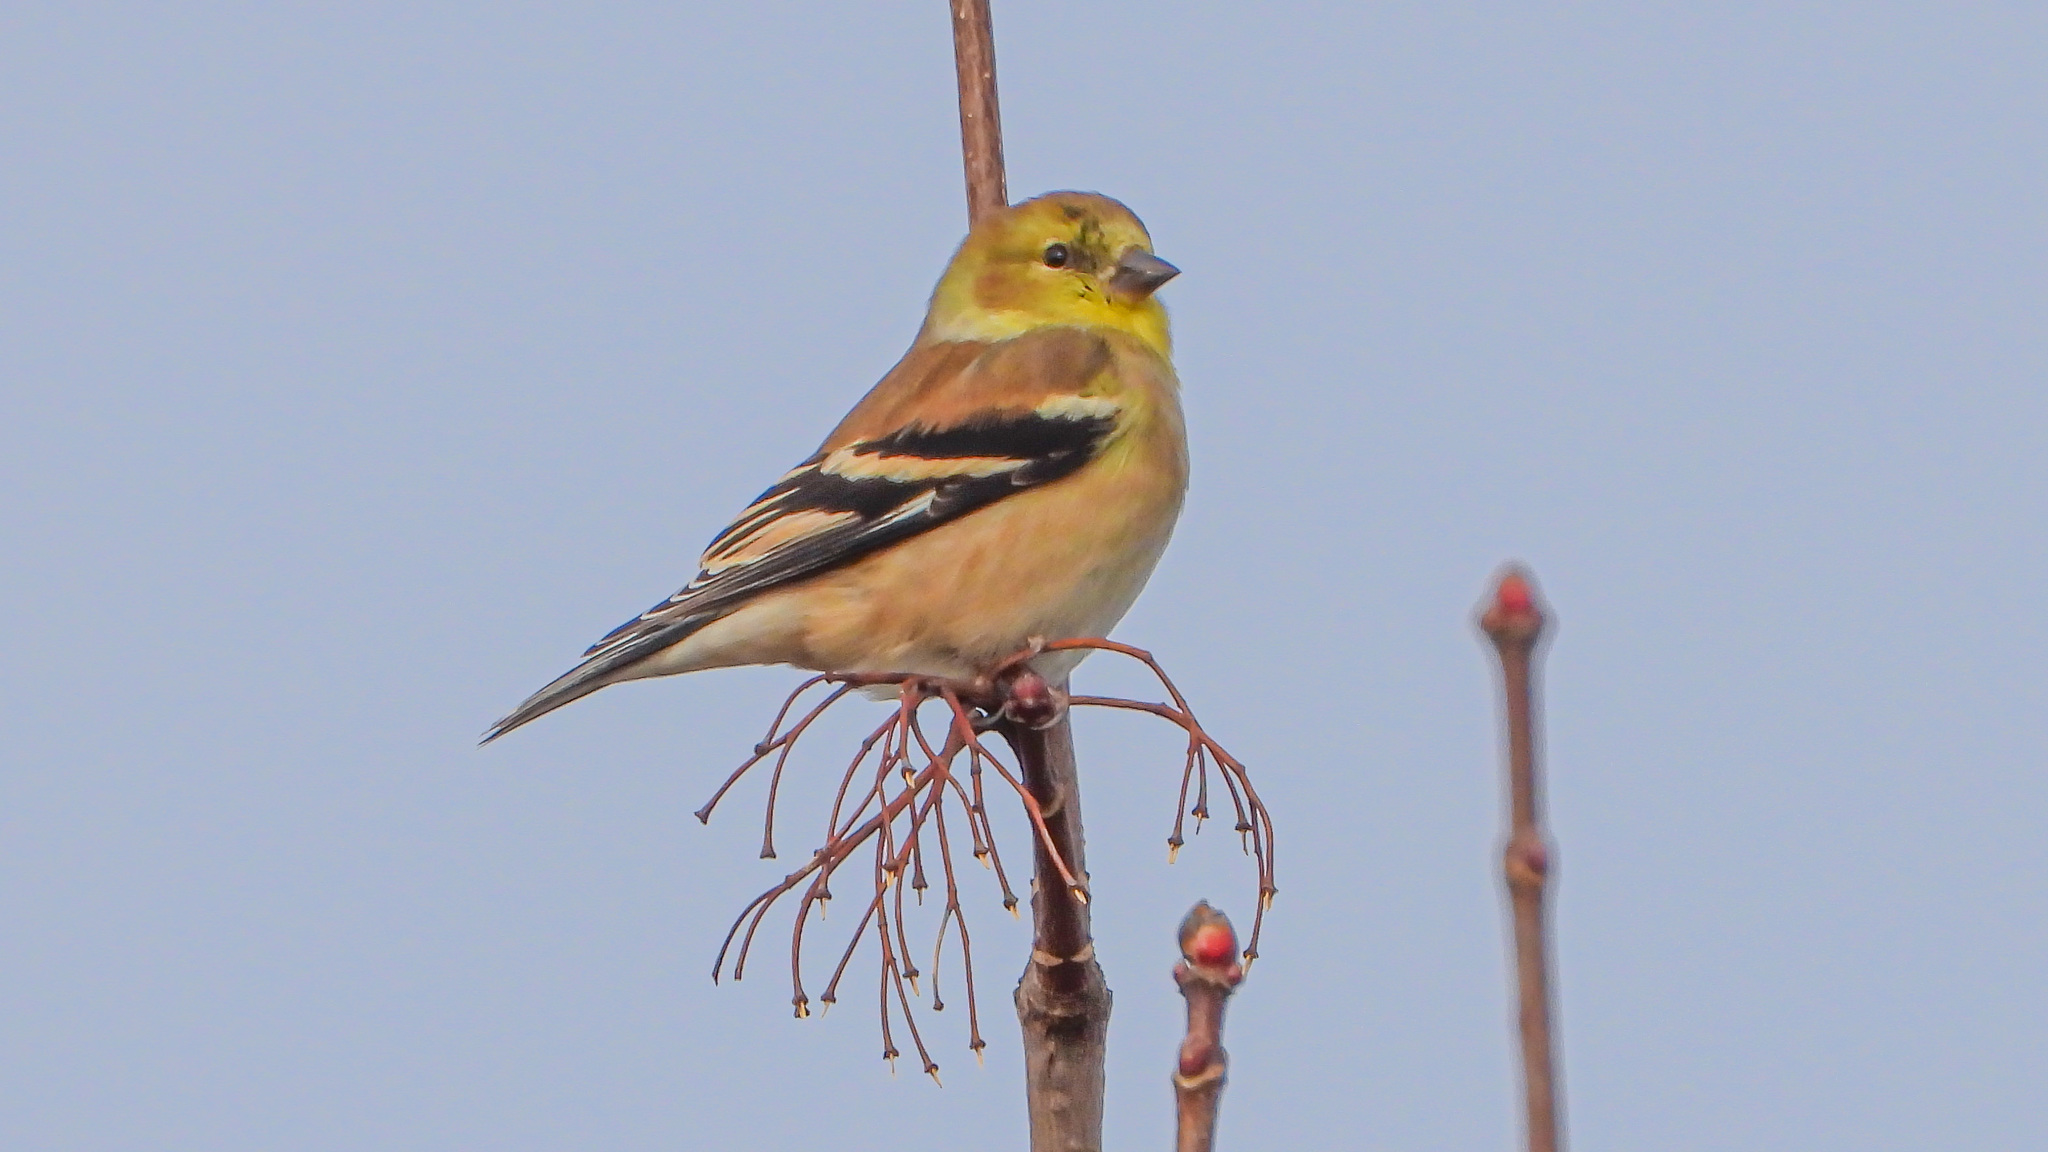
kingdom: Animalia
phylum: Chordata
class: Aves
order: Passeriformes
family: Fringillidae
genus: Spinus
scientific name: Spinus tristis
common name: American goldfinch
